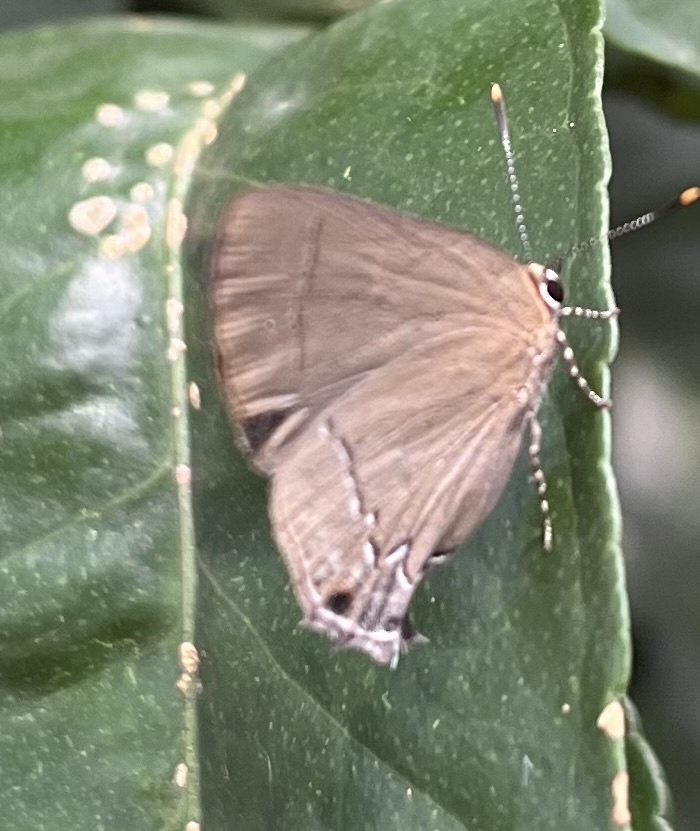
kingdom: Animalia
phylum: Arthropoda
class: Insecta
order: Lepidoptera
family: Lycaenidae
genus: Ziegleria
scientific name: Ziegleria hesperitis
